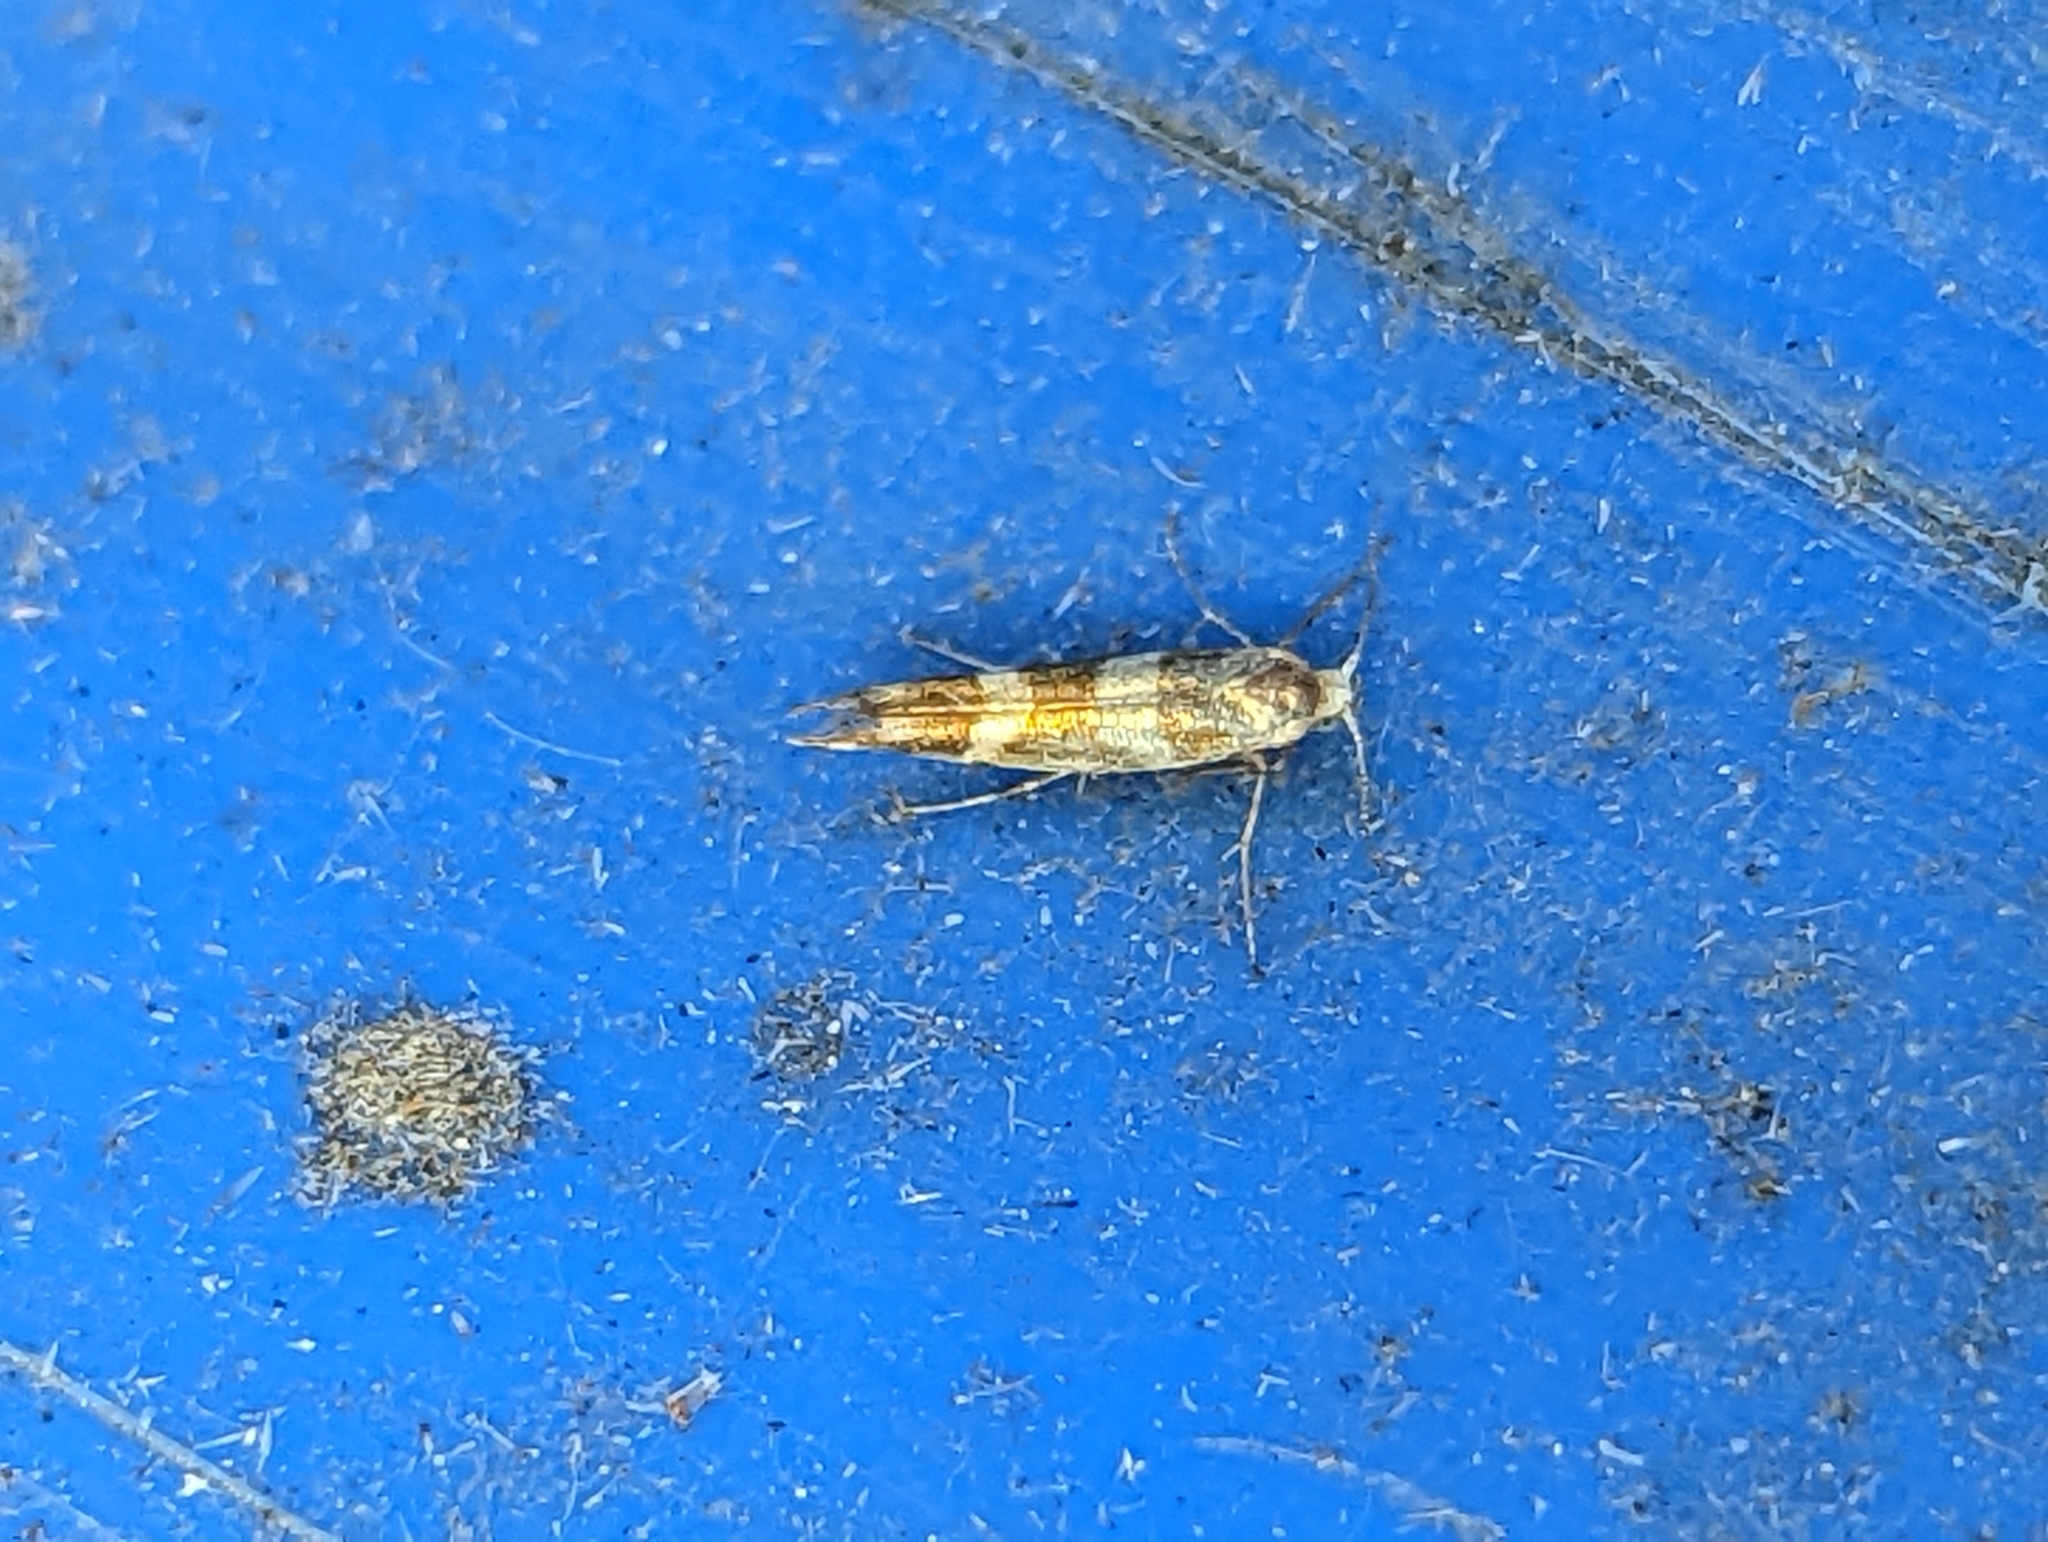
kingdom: Animalia
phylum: Arthropoda
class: Insecta
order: Lepidoptera
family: Argyresthiidae
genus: Argyresthia
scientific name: Argyresthia goedartella
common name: Golden argent
